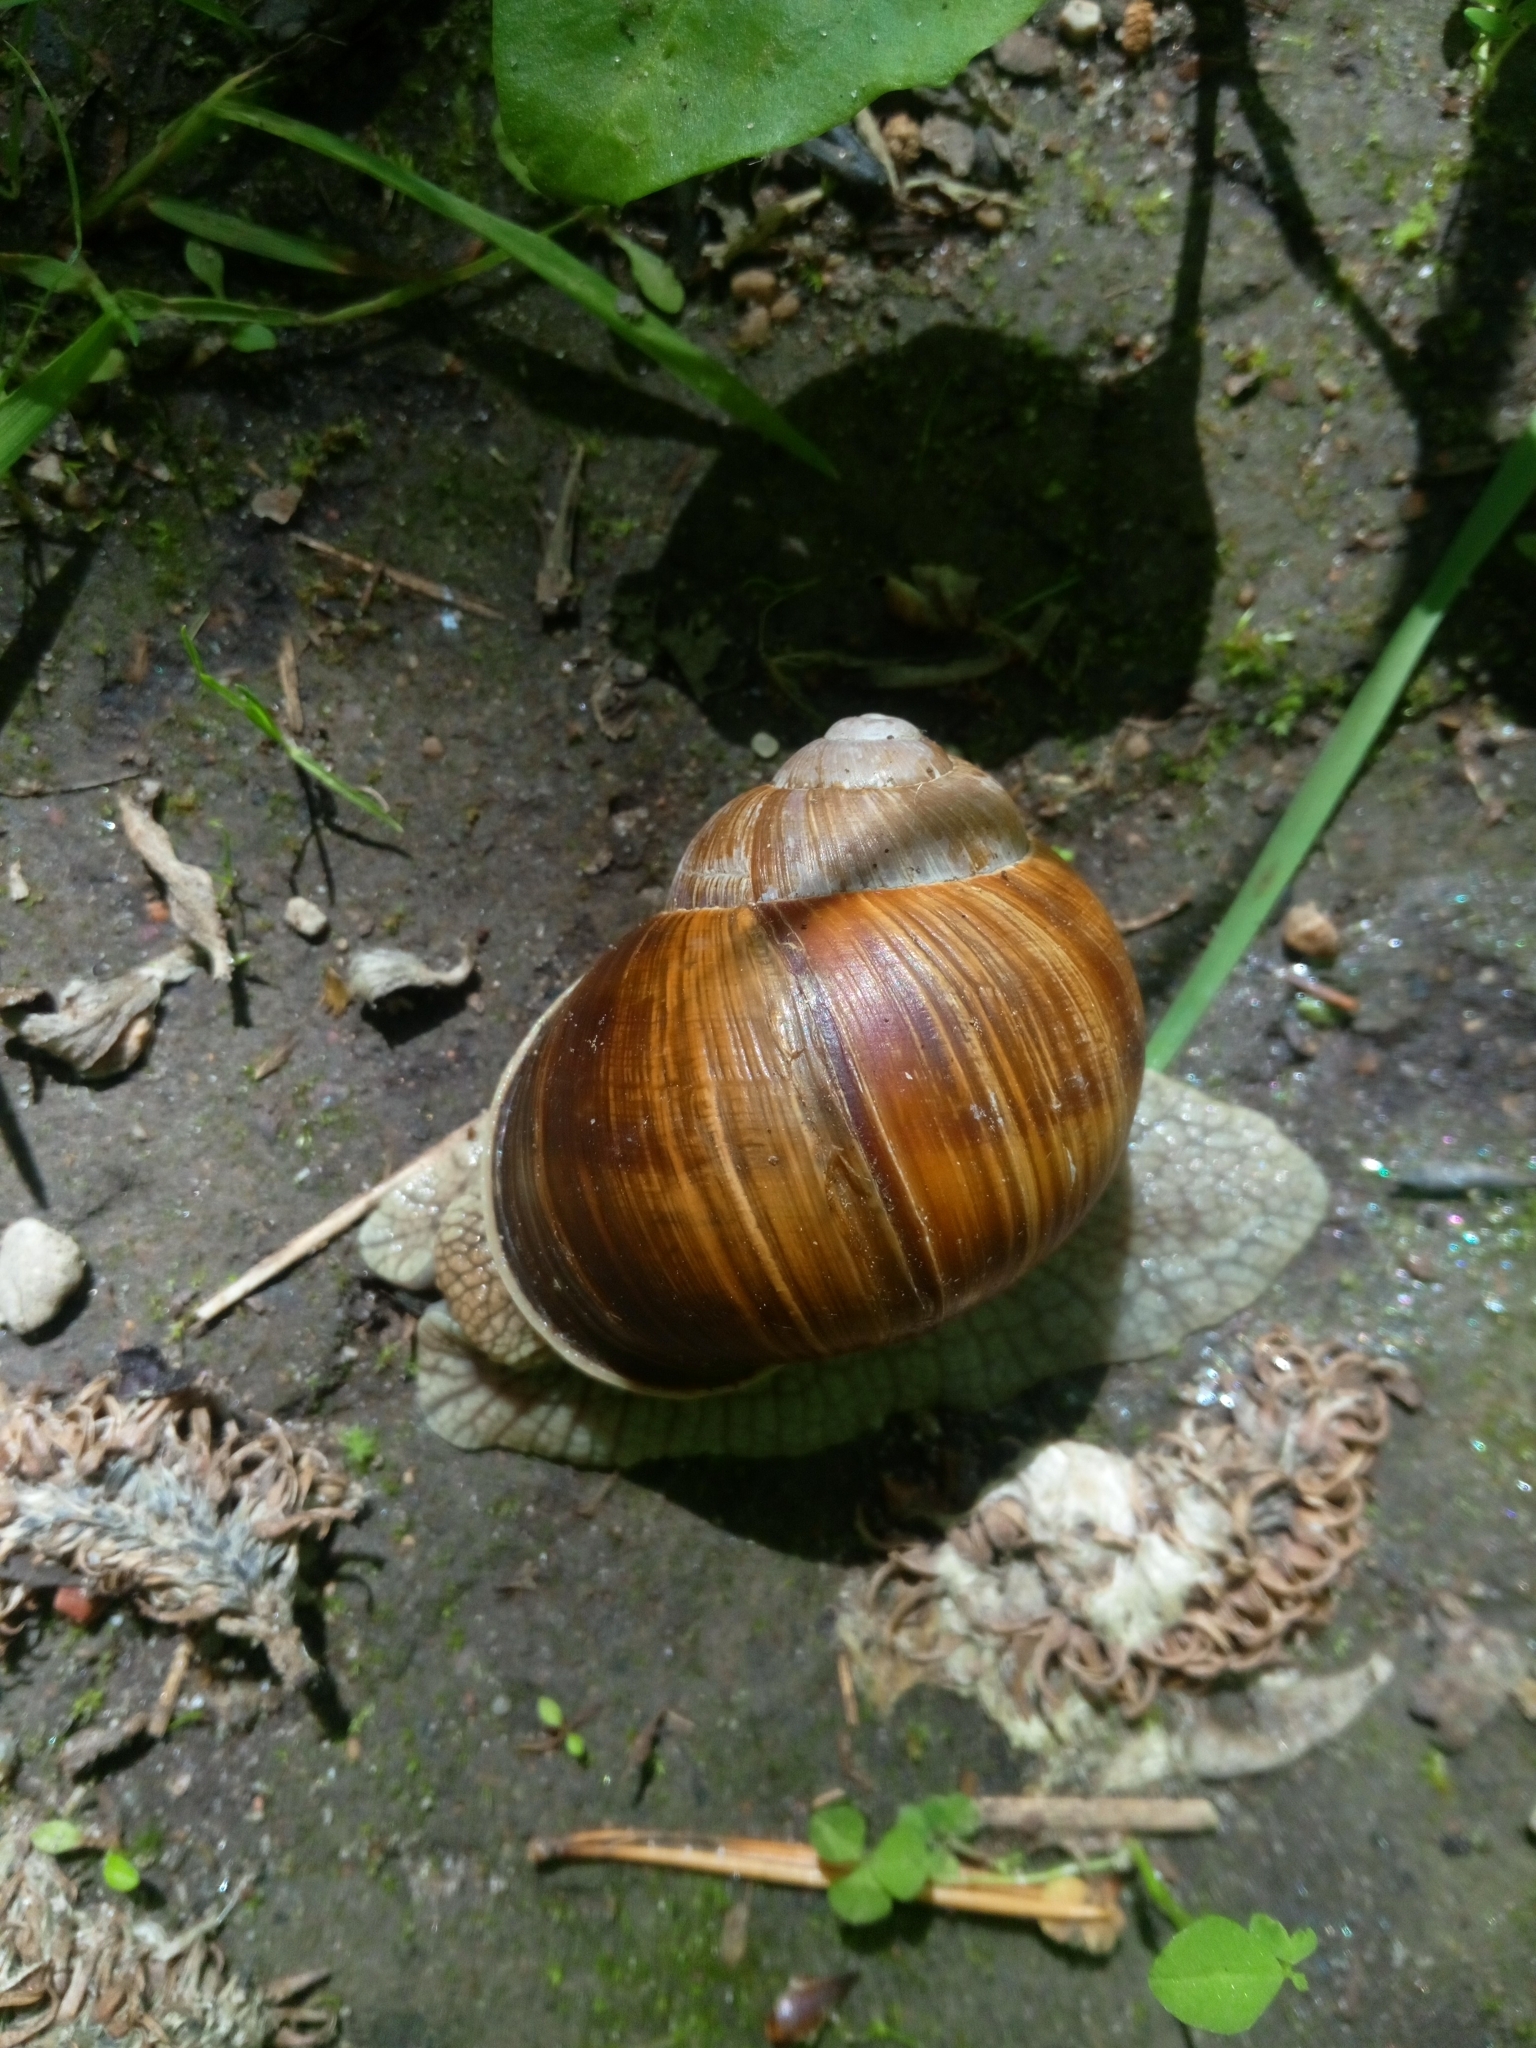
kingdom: Animalia
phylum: Mollusca
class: Gastropoda
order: Stylommatophora
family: Helicidae
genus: Helix
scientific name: Helix pomatia
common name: Roman snail
